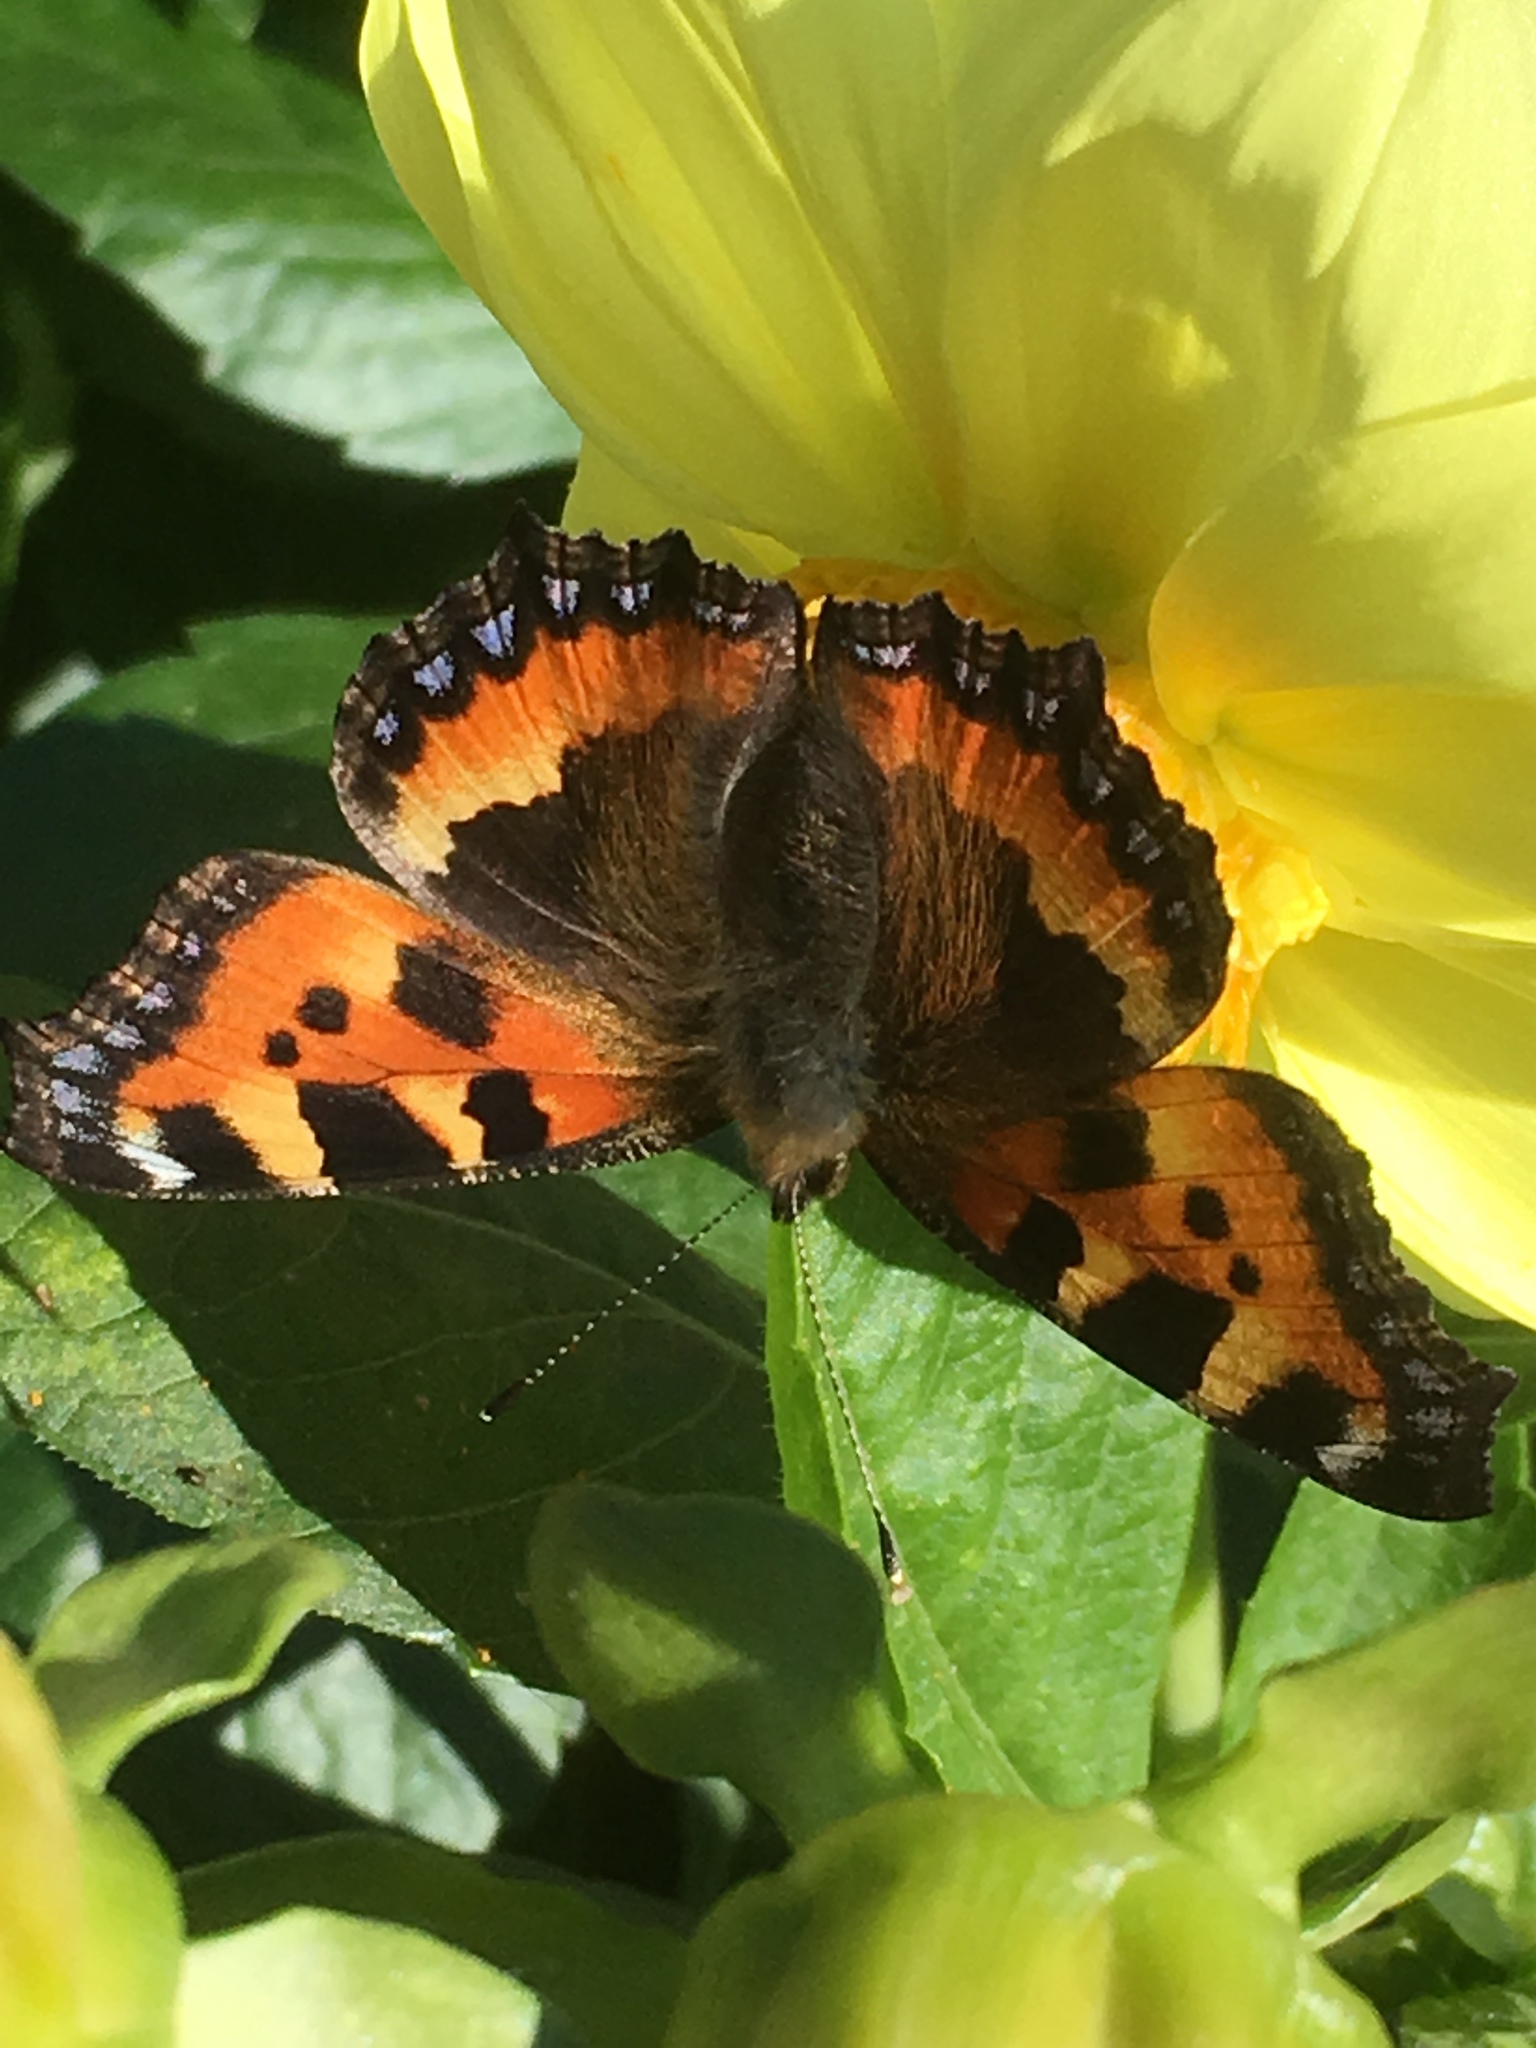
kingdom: Animalia
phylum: Arthropoda
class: Insecta
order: Lepidoptera
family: Nymphalidae
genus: Aglais
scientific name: Aglais urticae
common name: Small tortoiseshell
